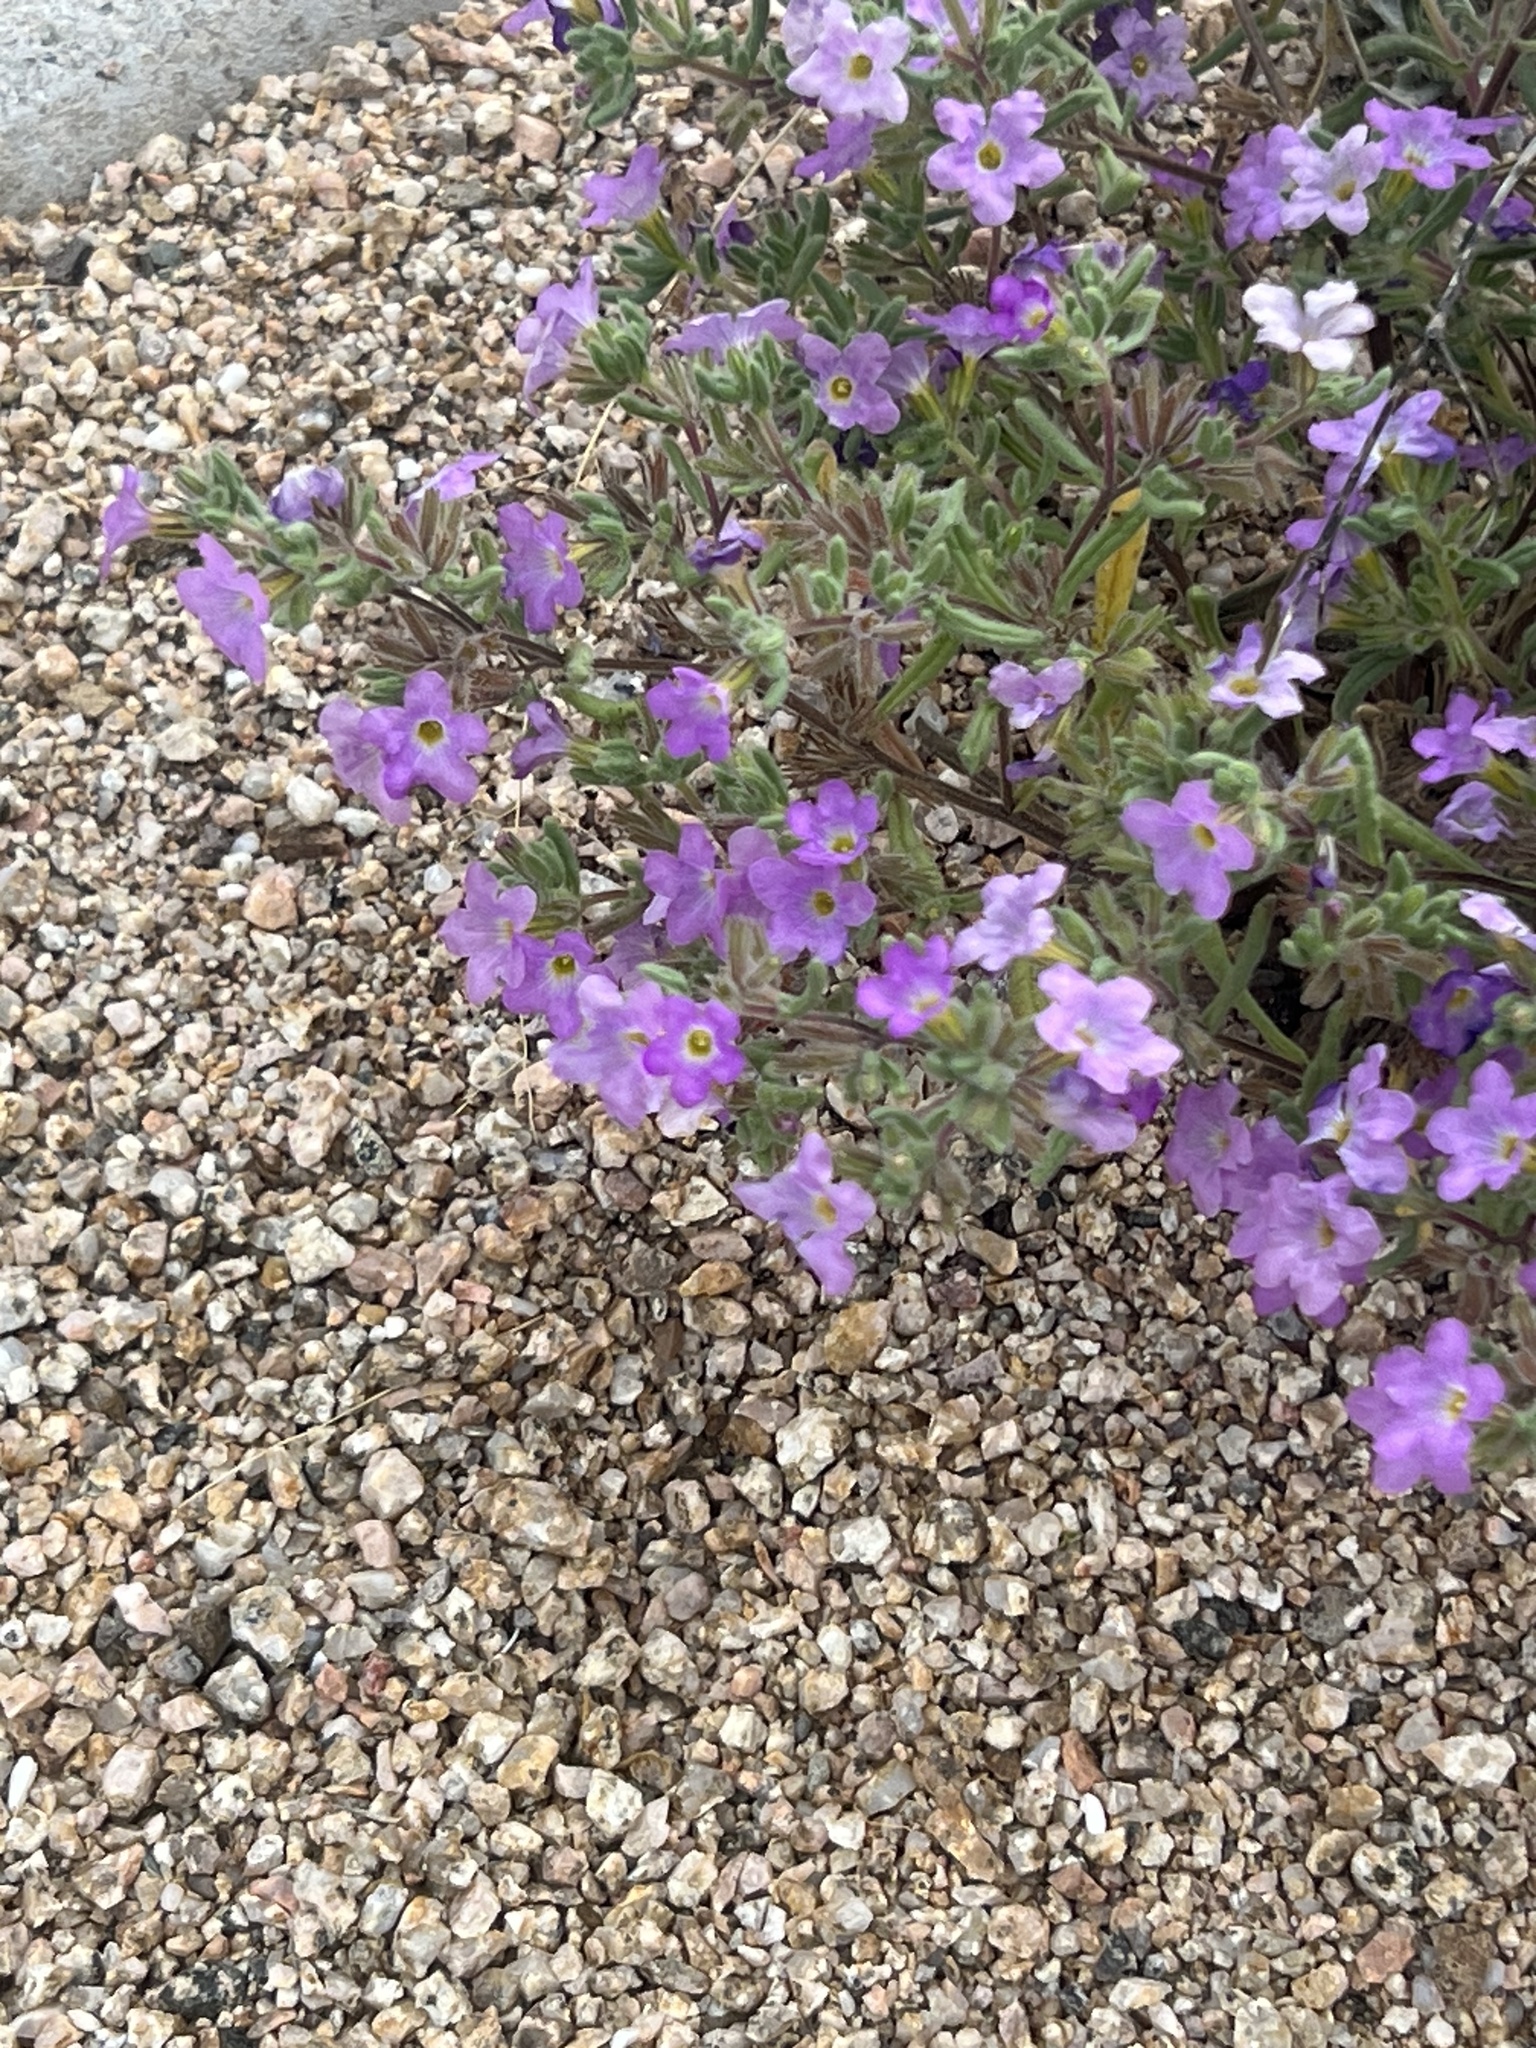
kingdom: Plantae
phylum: Tracheophyta
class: Magnoliopsida
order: Boraginales
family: Namaceae
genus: Nama
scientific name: Nama hispida
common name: Bristly nama
